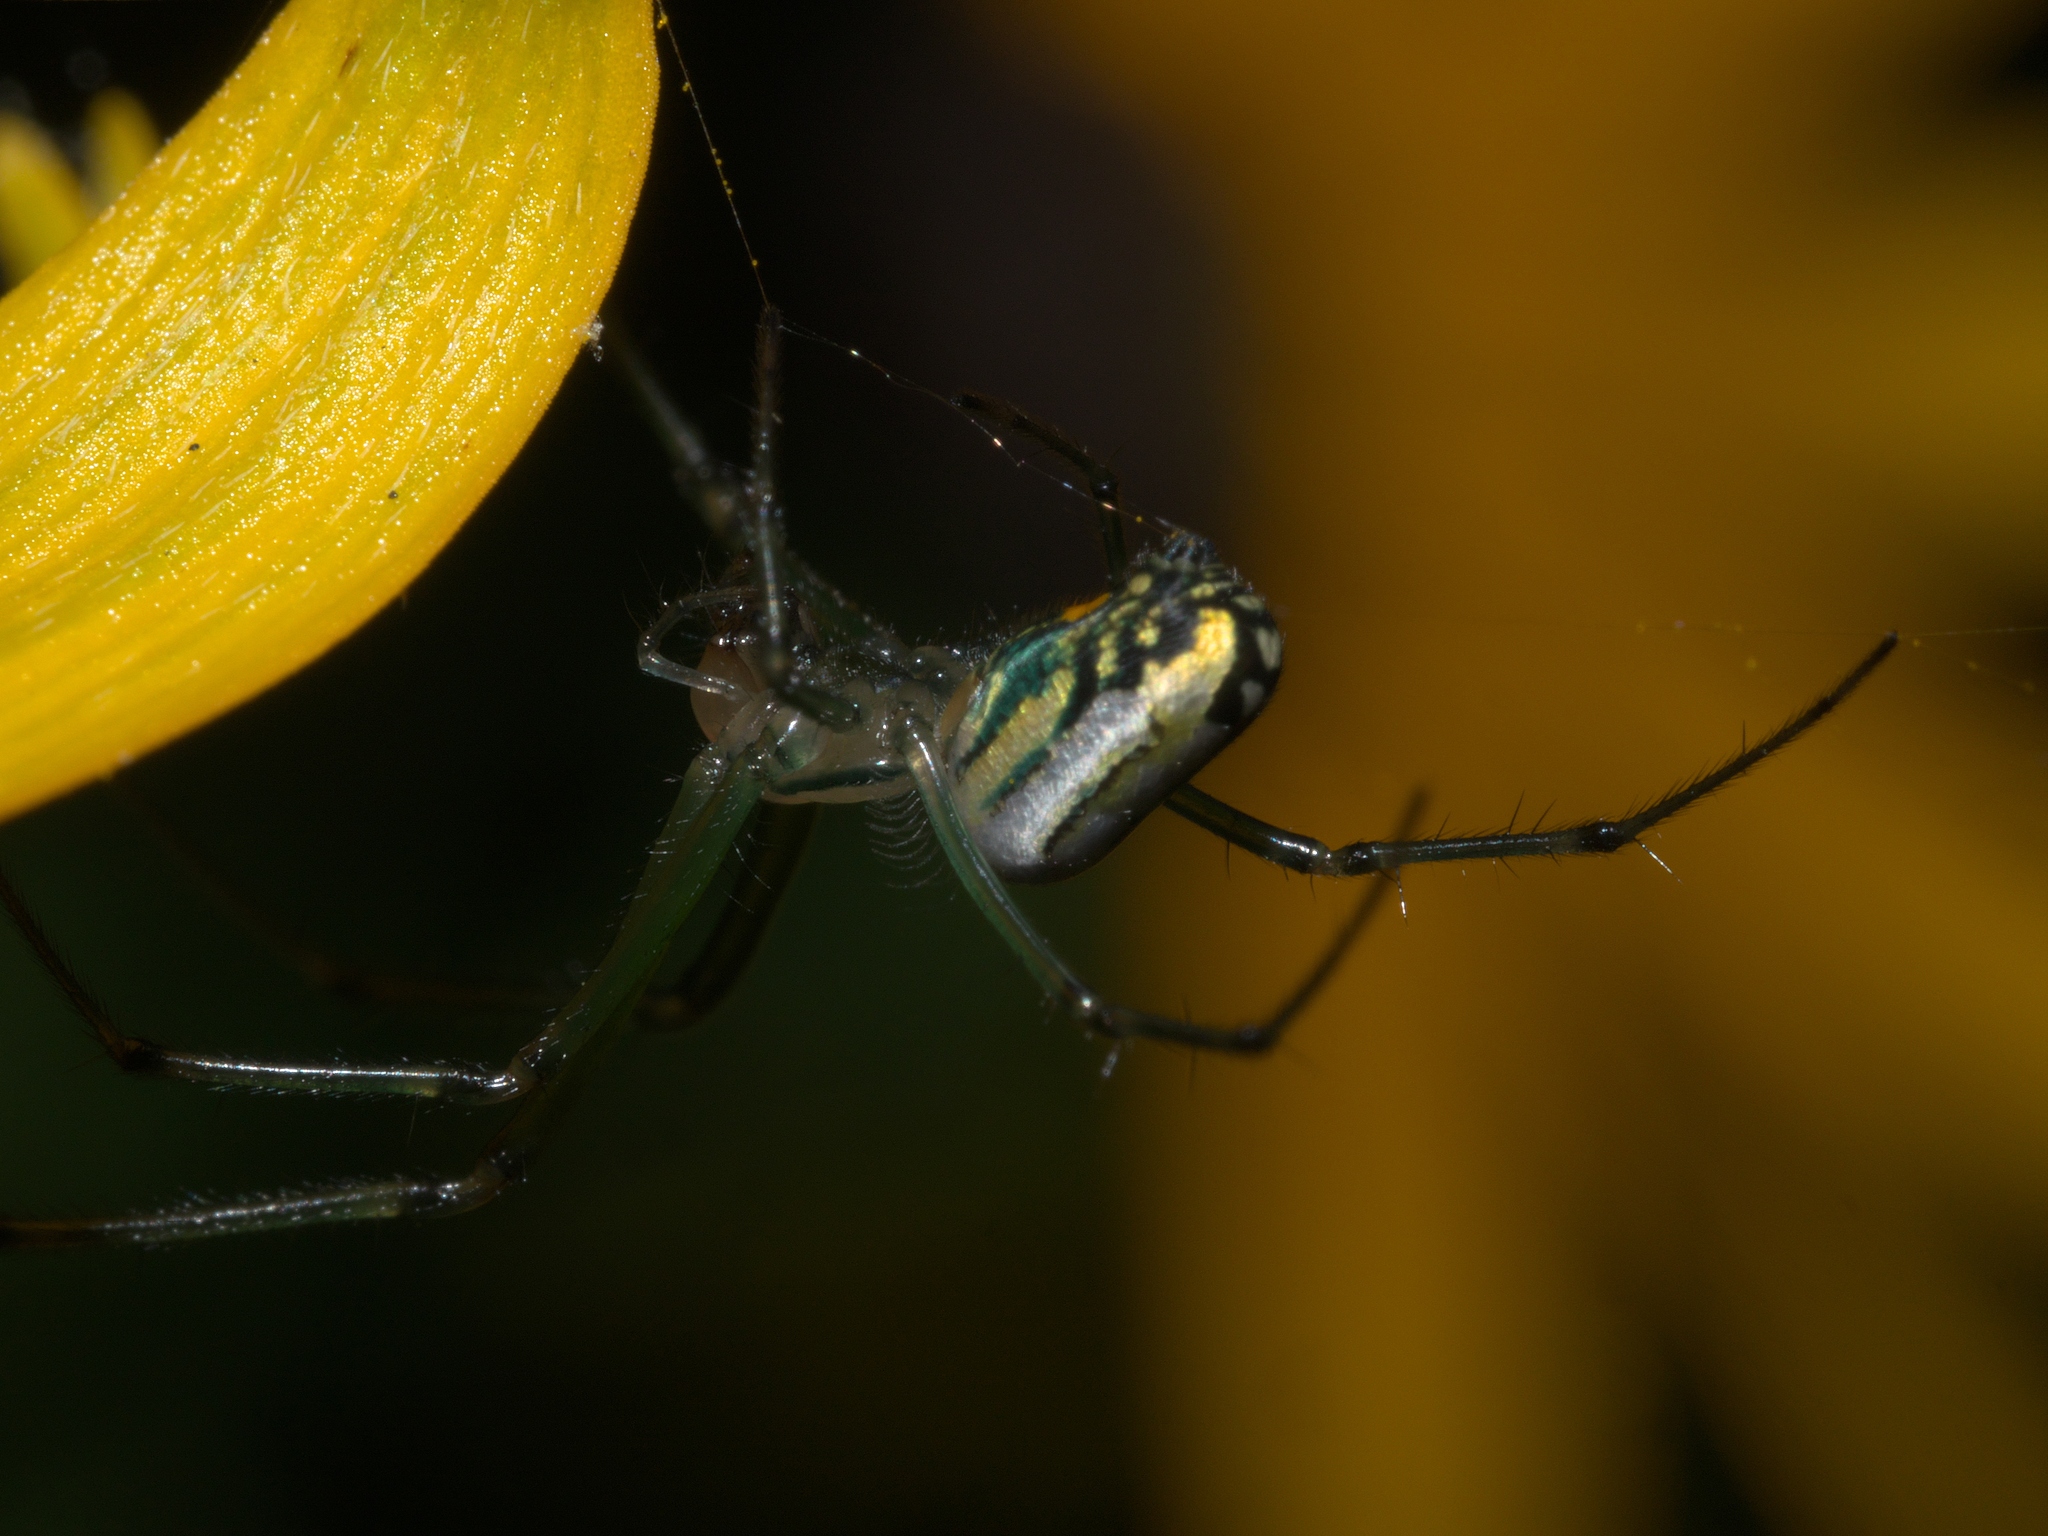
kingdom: Animalia
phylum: Arthropoda
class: Arachnida
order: Araneae
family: Tetragnathidae
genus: Leucauge
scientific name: Leucauge venusta
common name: Longjawed orb weavers
